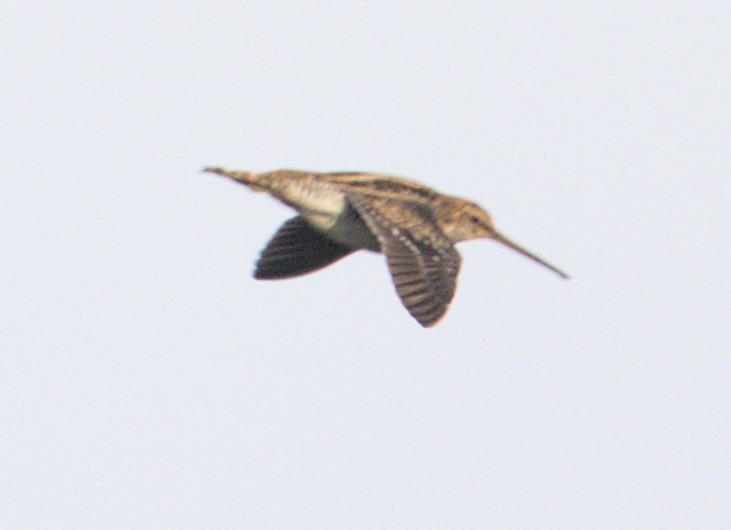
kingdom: Animalia
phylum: Chordata
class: Aves
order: Charadriiformes
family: Scolopacidae
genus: Gallinago
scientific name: Gallinago delicata
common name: Wilson's snipe
